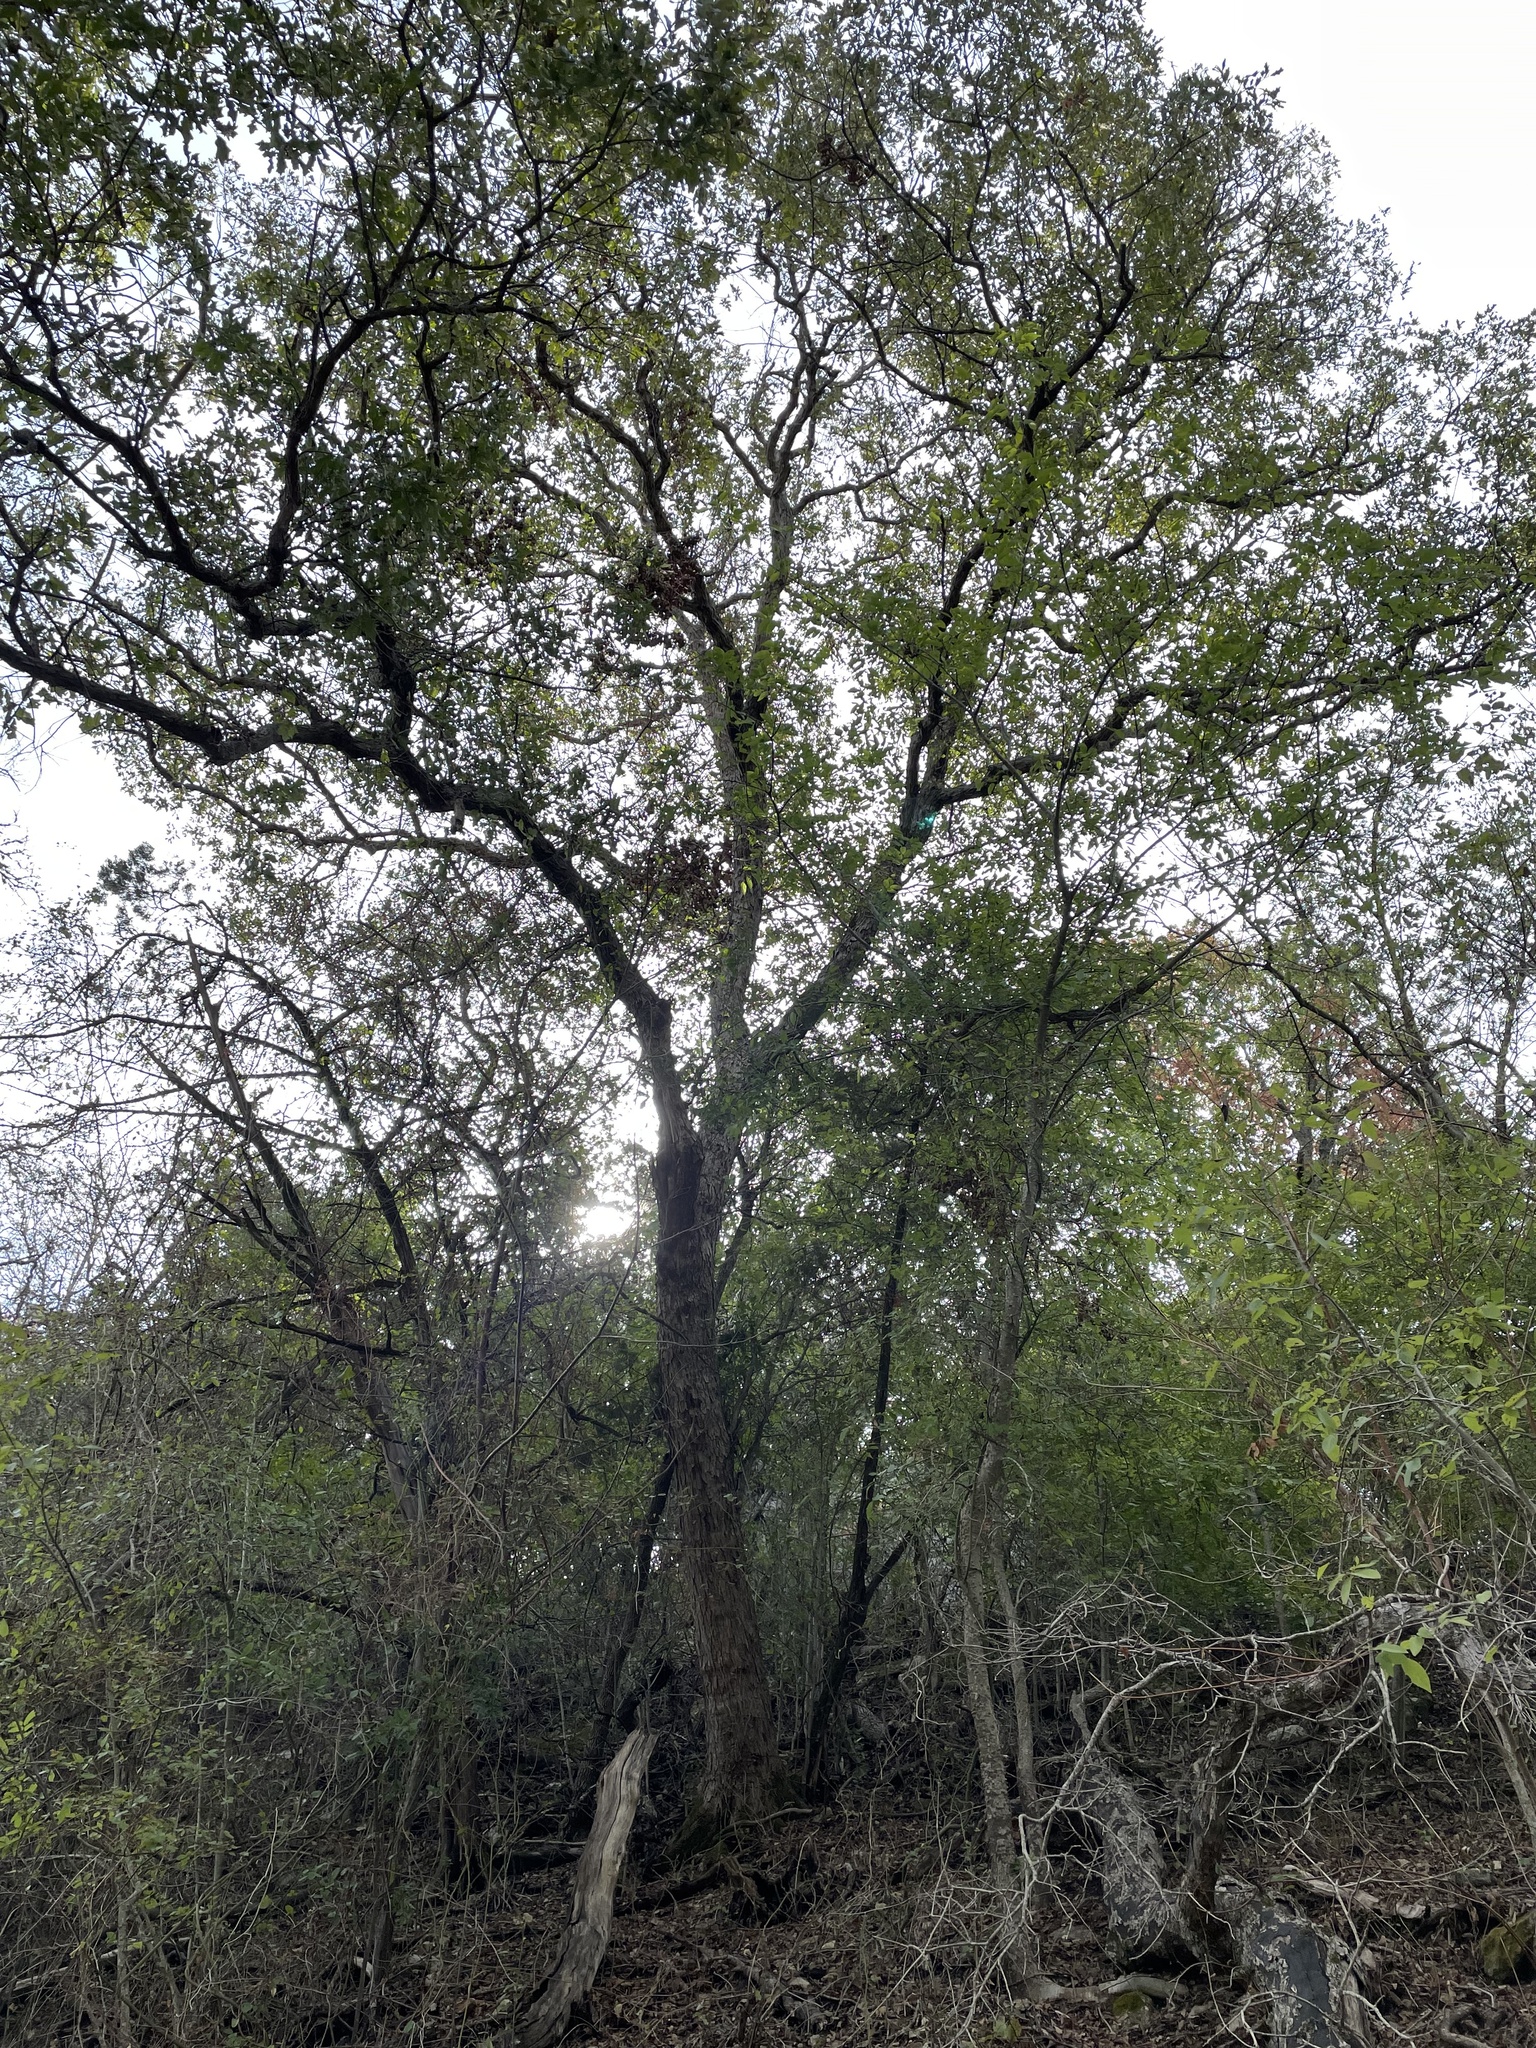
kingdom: Plantae
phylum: Tracheophyta
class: Magnoliopsida
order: Fagales
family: Fagaceae
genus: Quercus
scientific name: Quercus sinuata
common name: Durand oak
